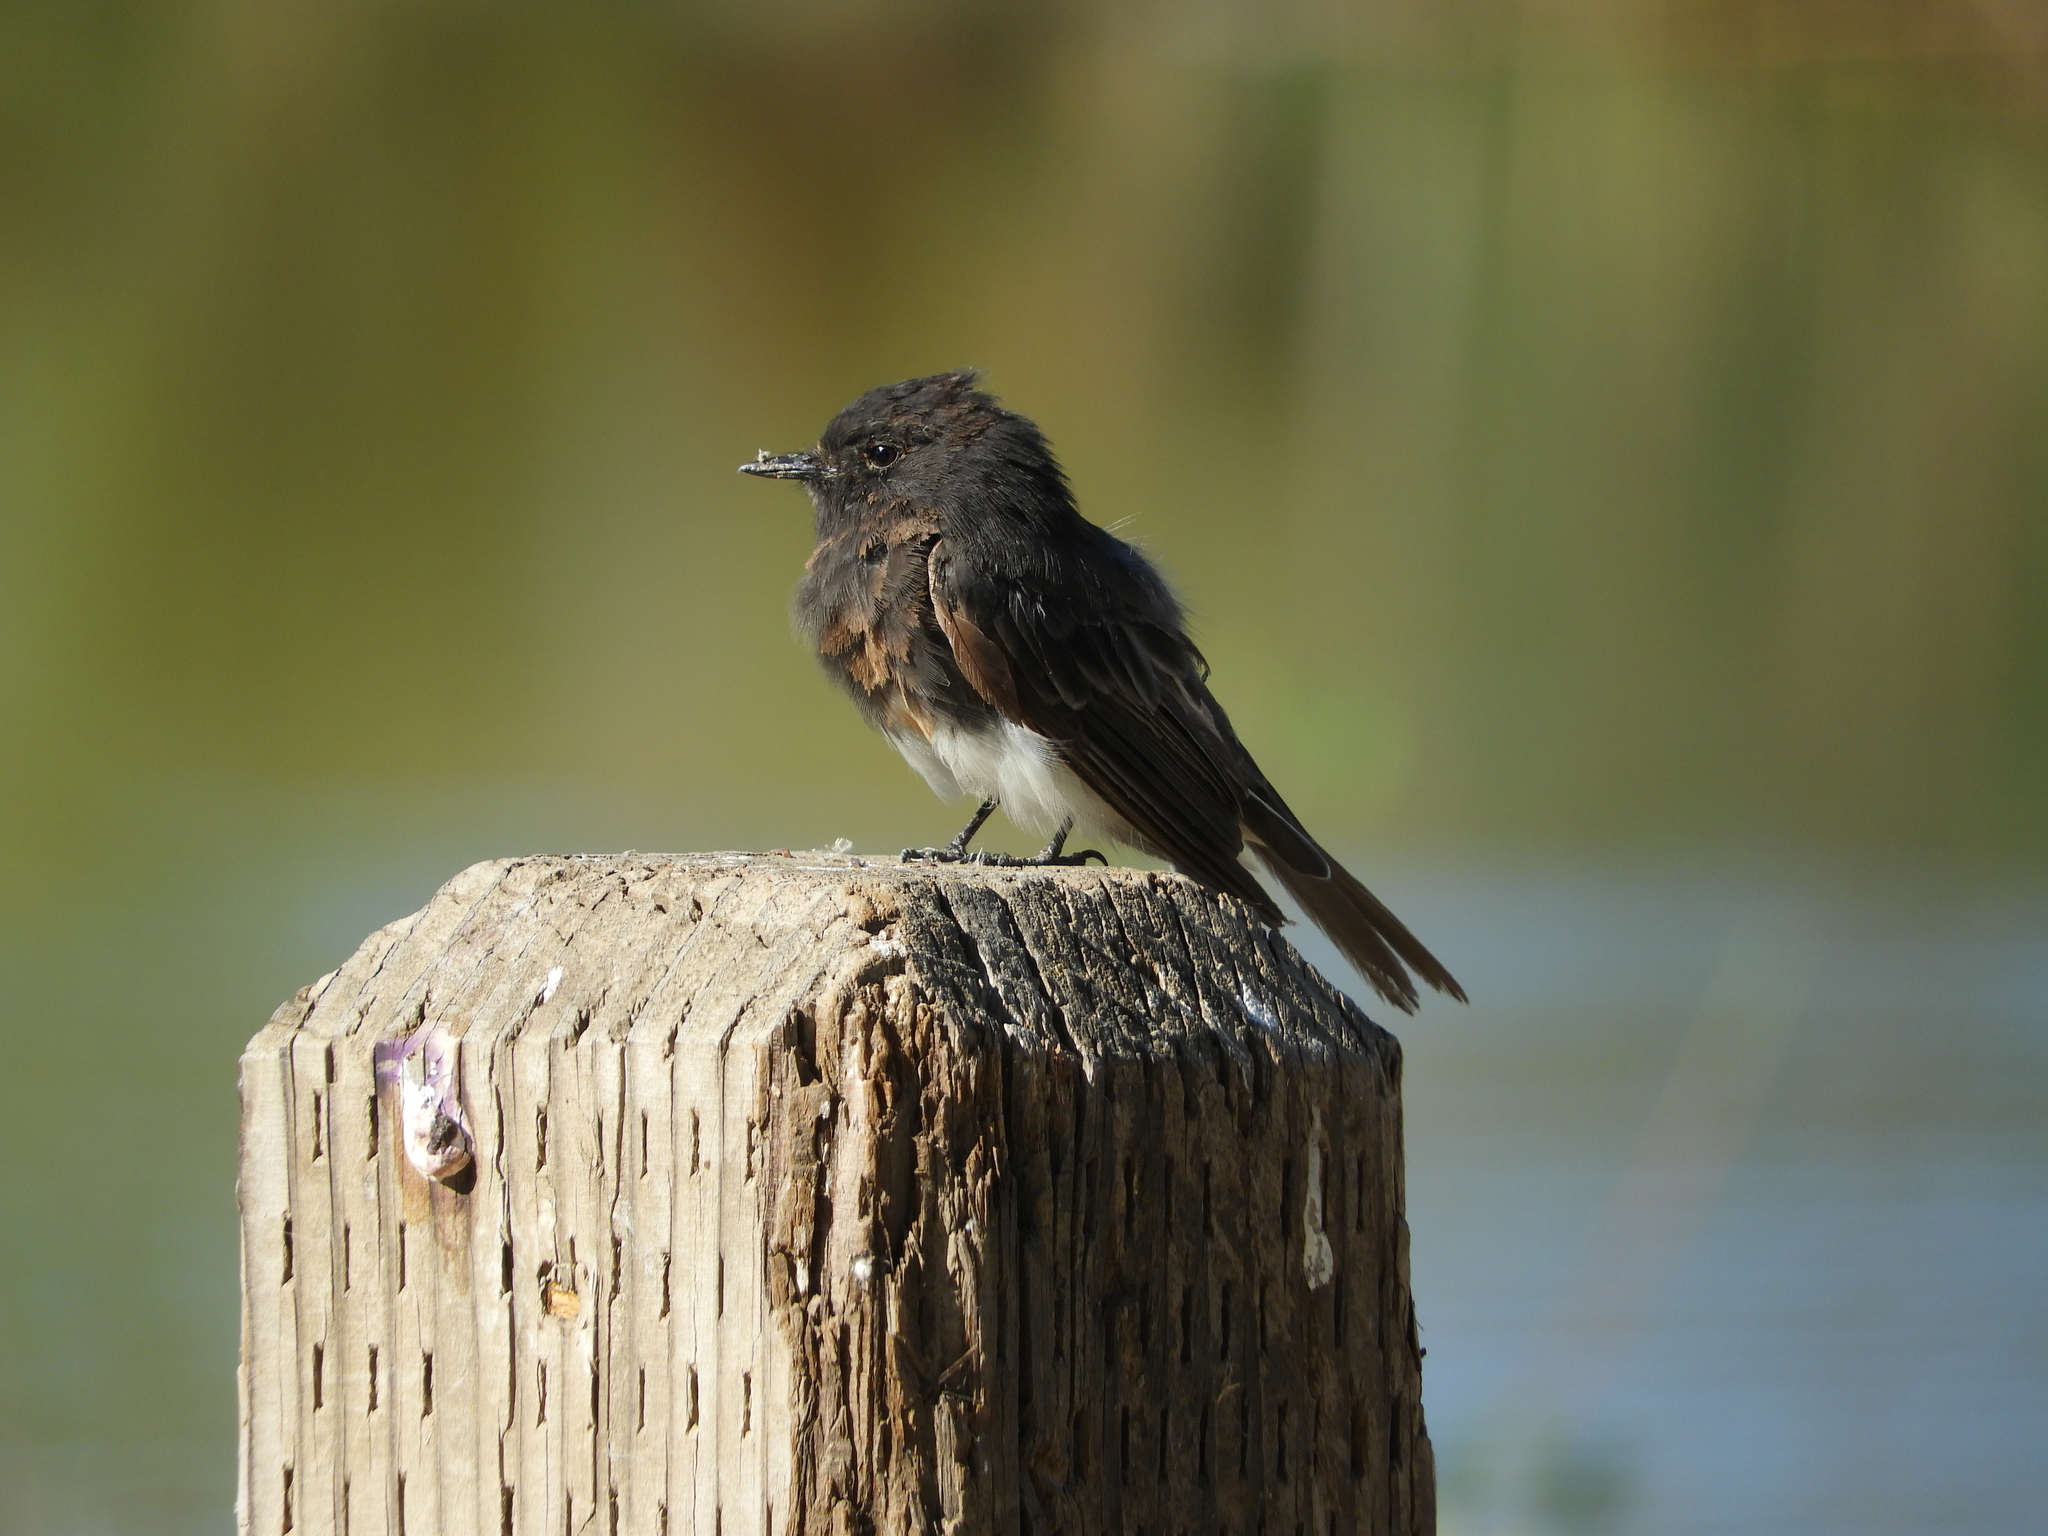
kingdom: Animalia
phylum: Chordata
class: Aves
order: Passeriformes
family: Tyrannidae
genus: Sayornis
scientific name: Sayornis nigricans
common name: Black phoebe
